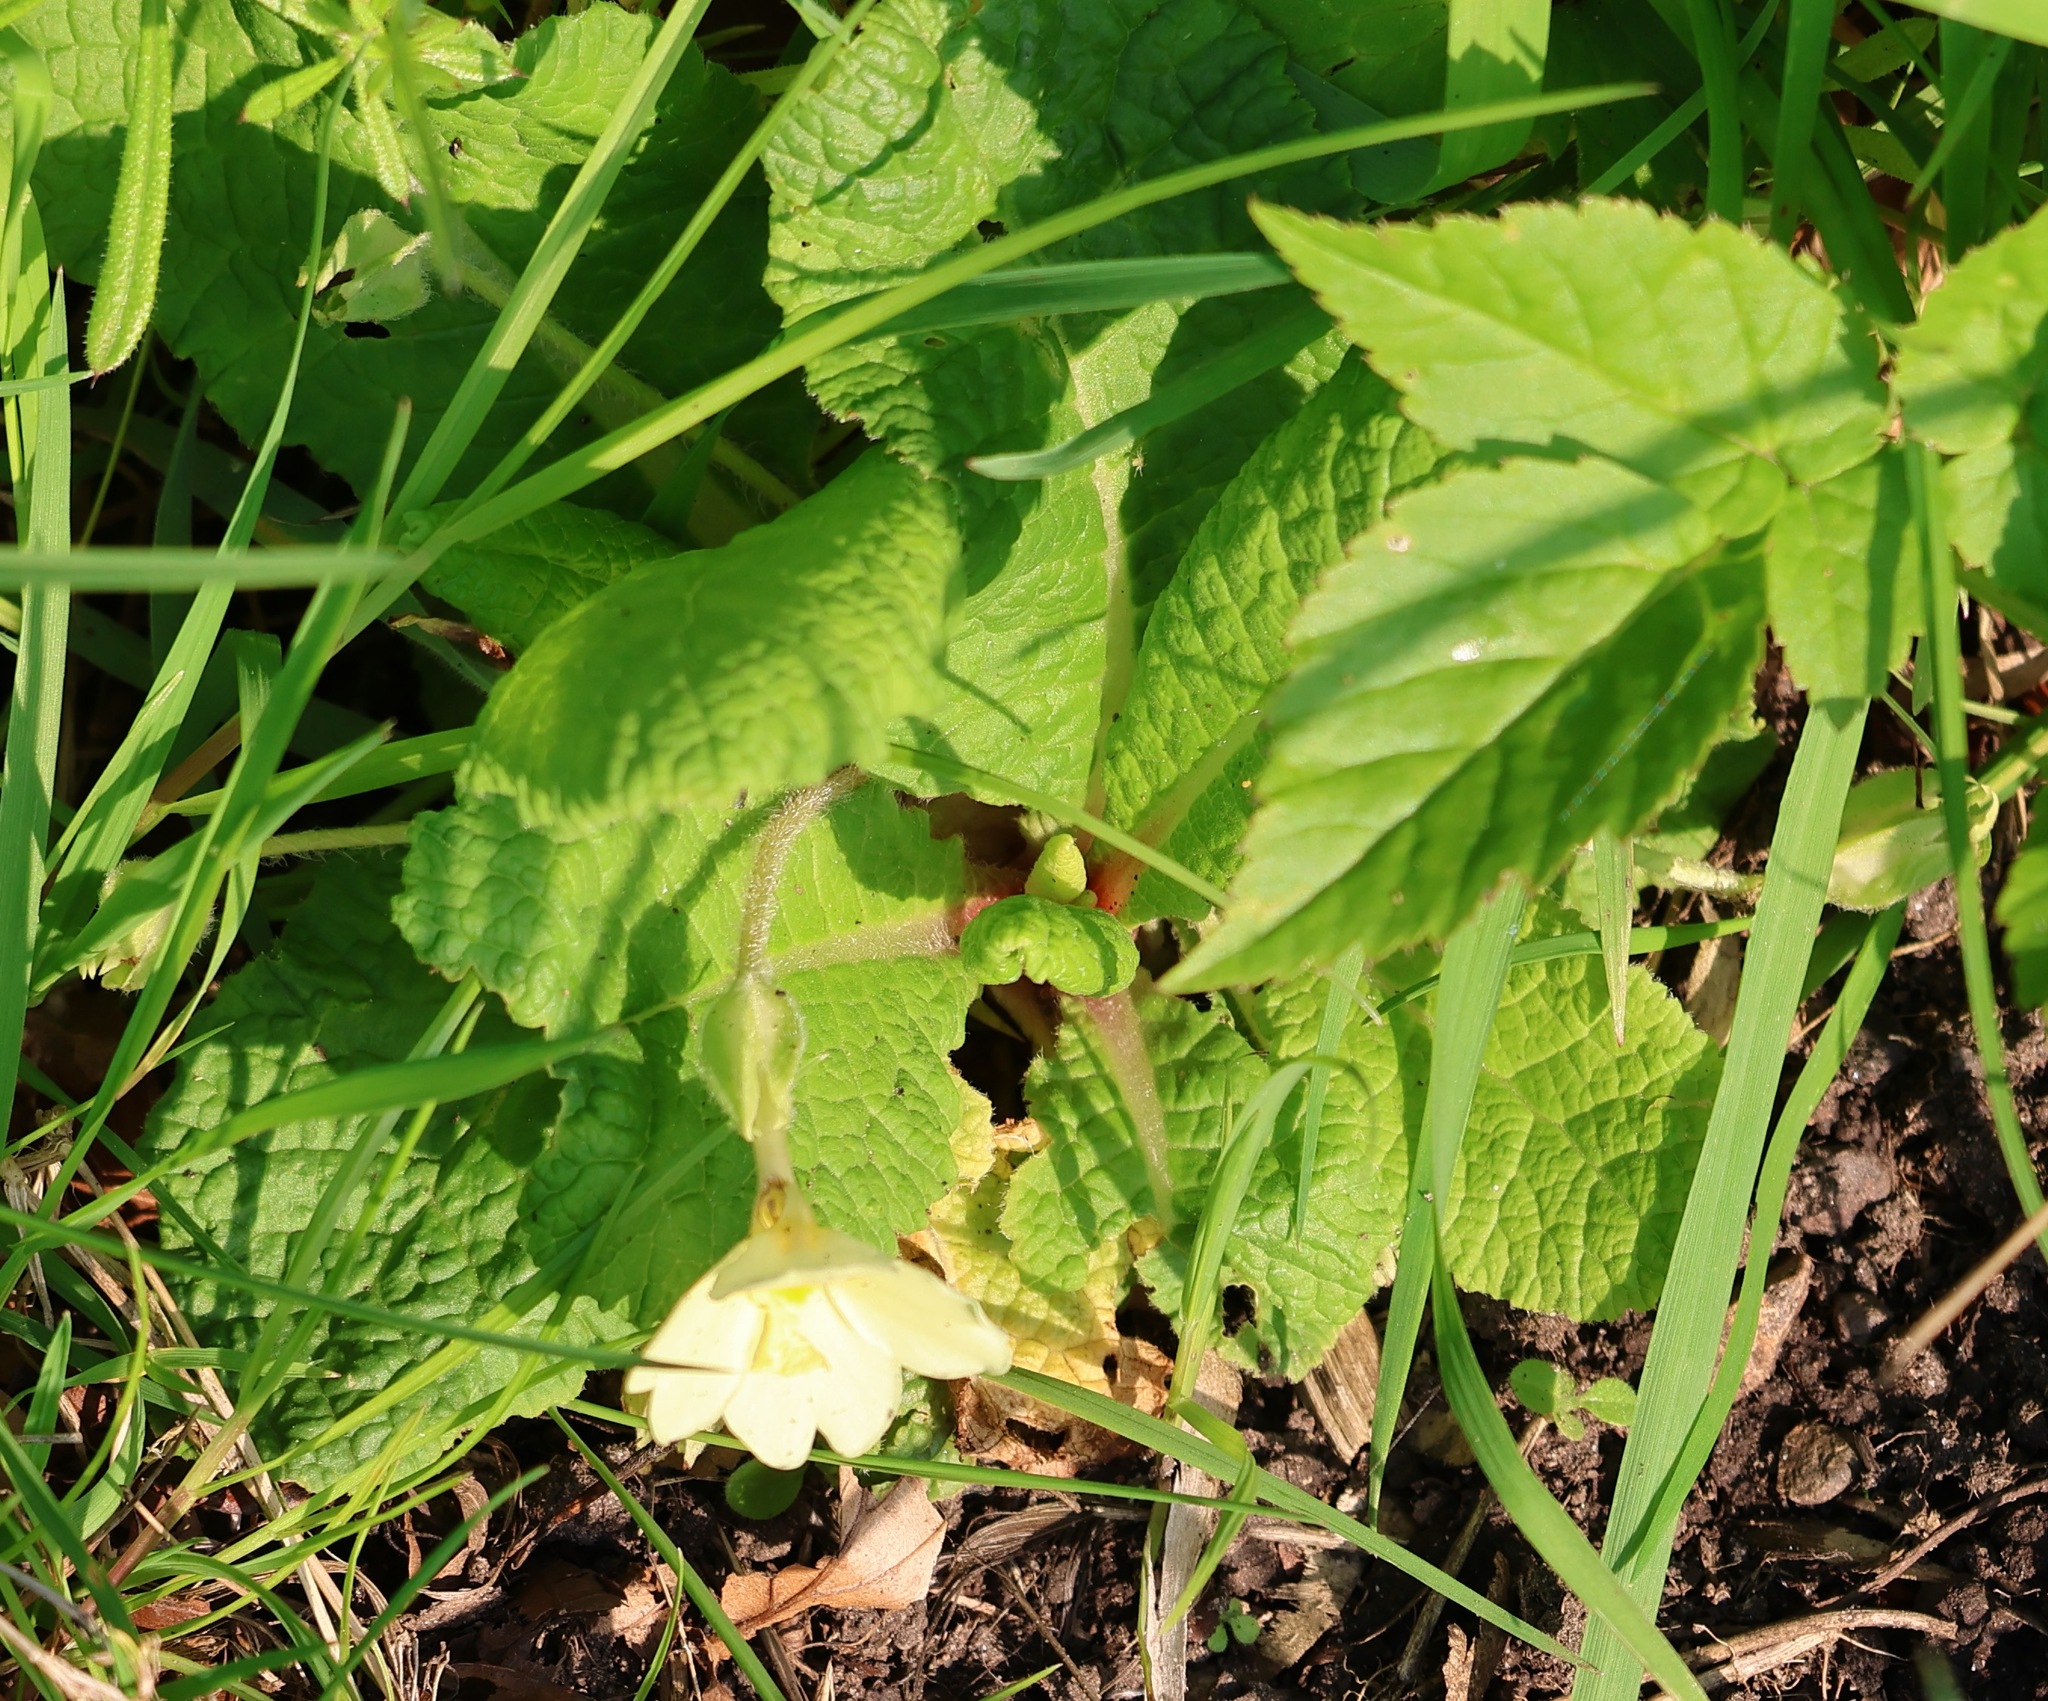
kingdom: Plantae
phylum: Tracheophyta
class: Magnoliopsida
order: Ericales
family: Primulaceae
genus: Primula
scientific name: Primula vulgaris
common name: Primrose
